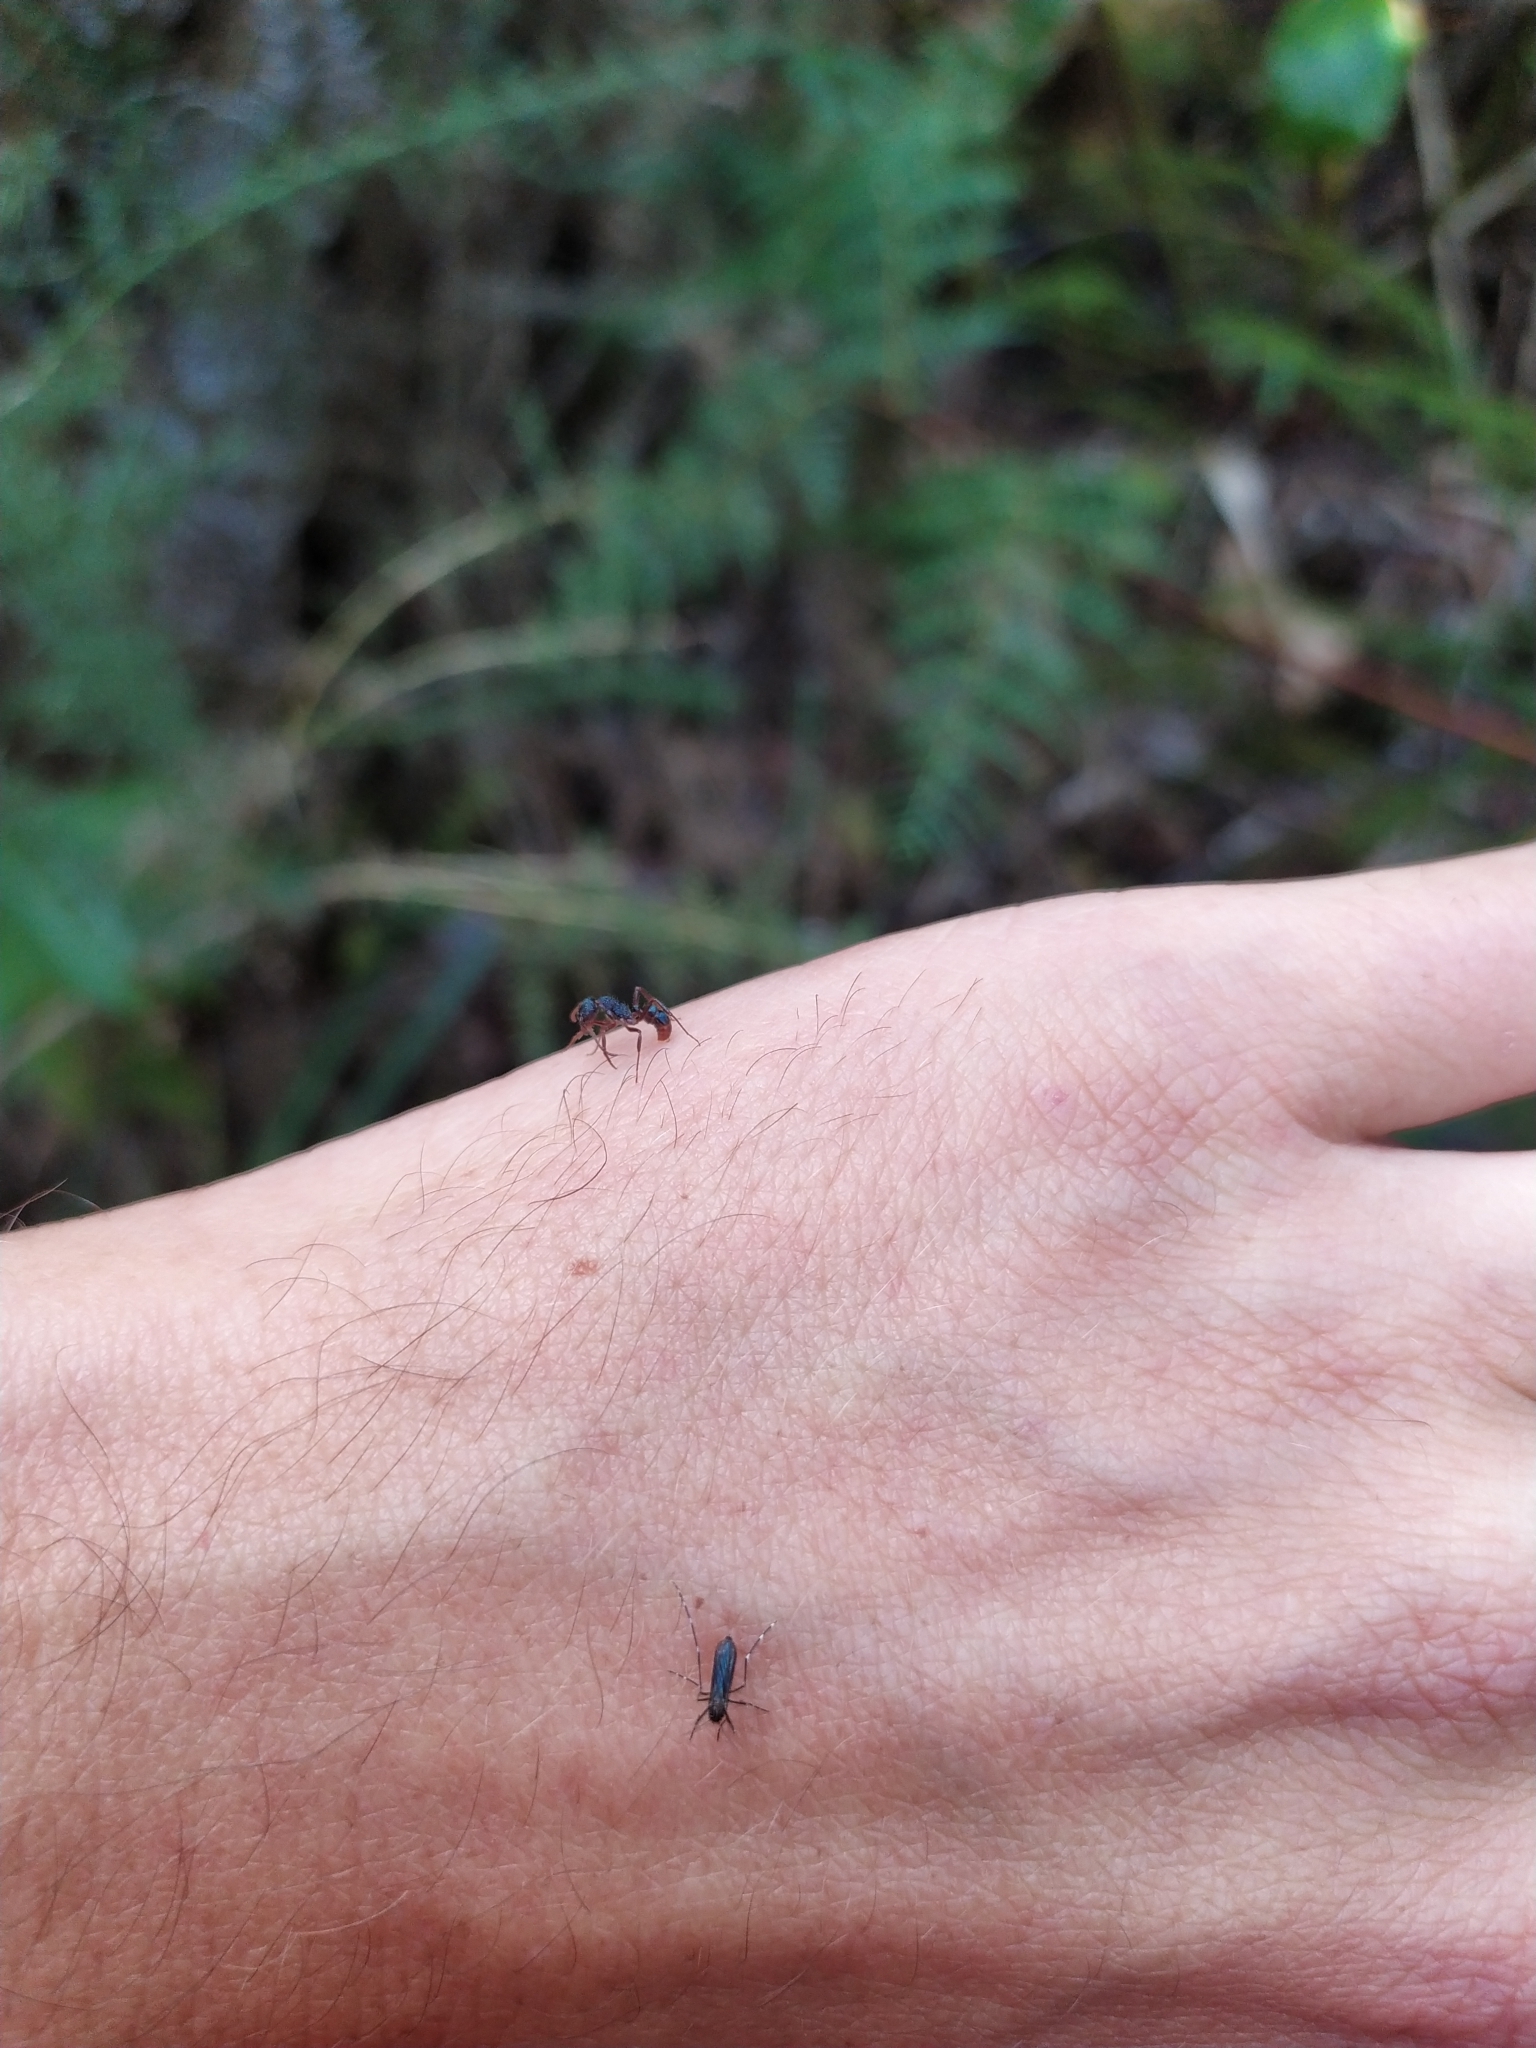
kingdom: Animalia
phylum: Arthropoda
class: Insecta
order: Hymenoptera
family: Formicidae
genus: Rhytidoponera
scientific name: Rhytidoponera chalybaea
